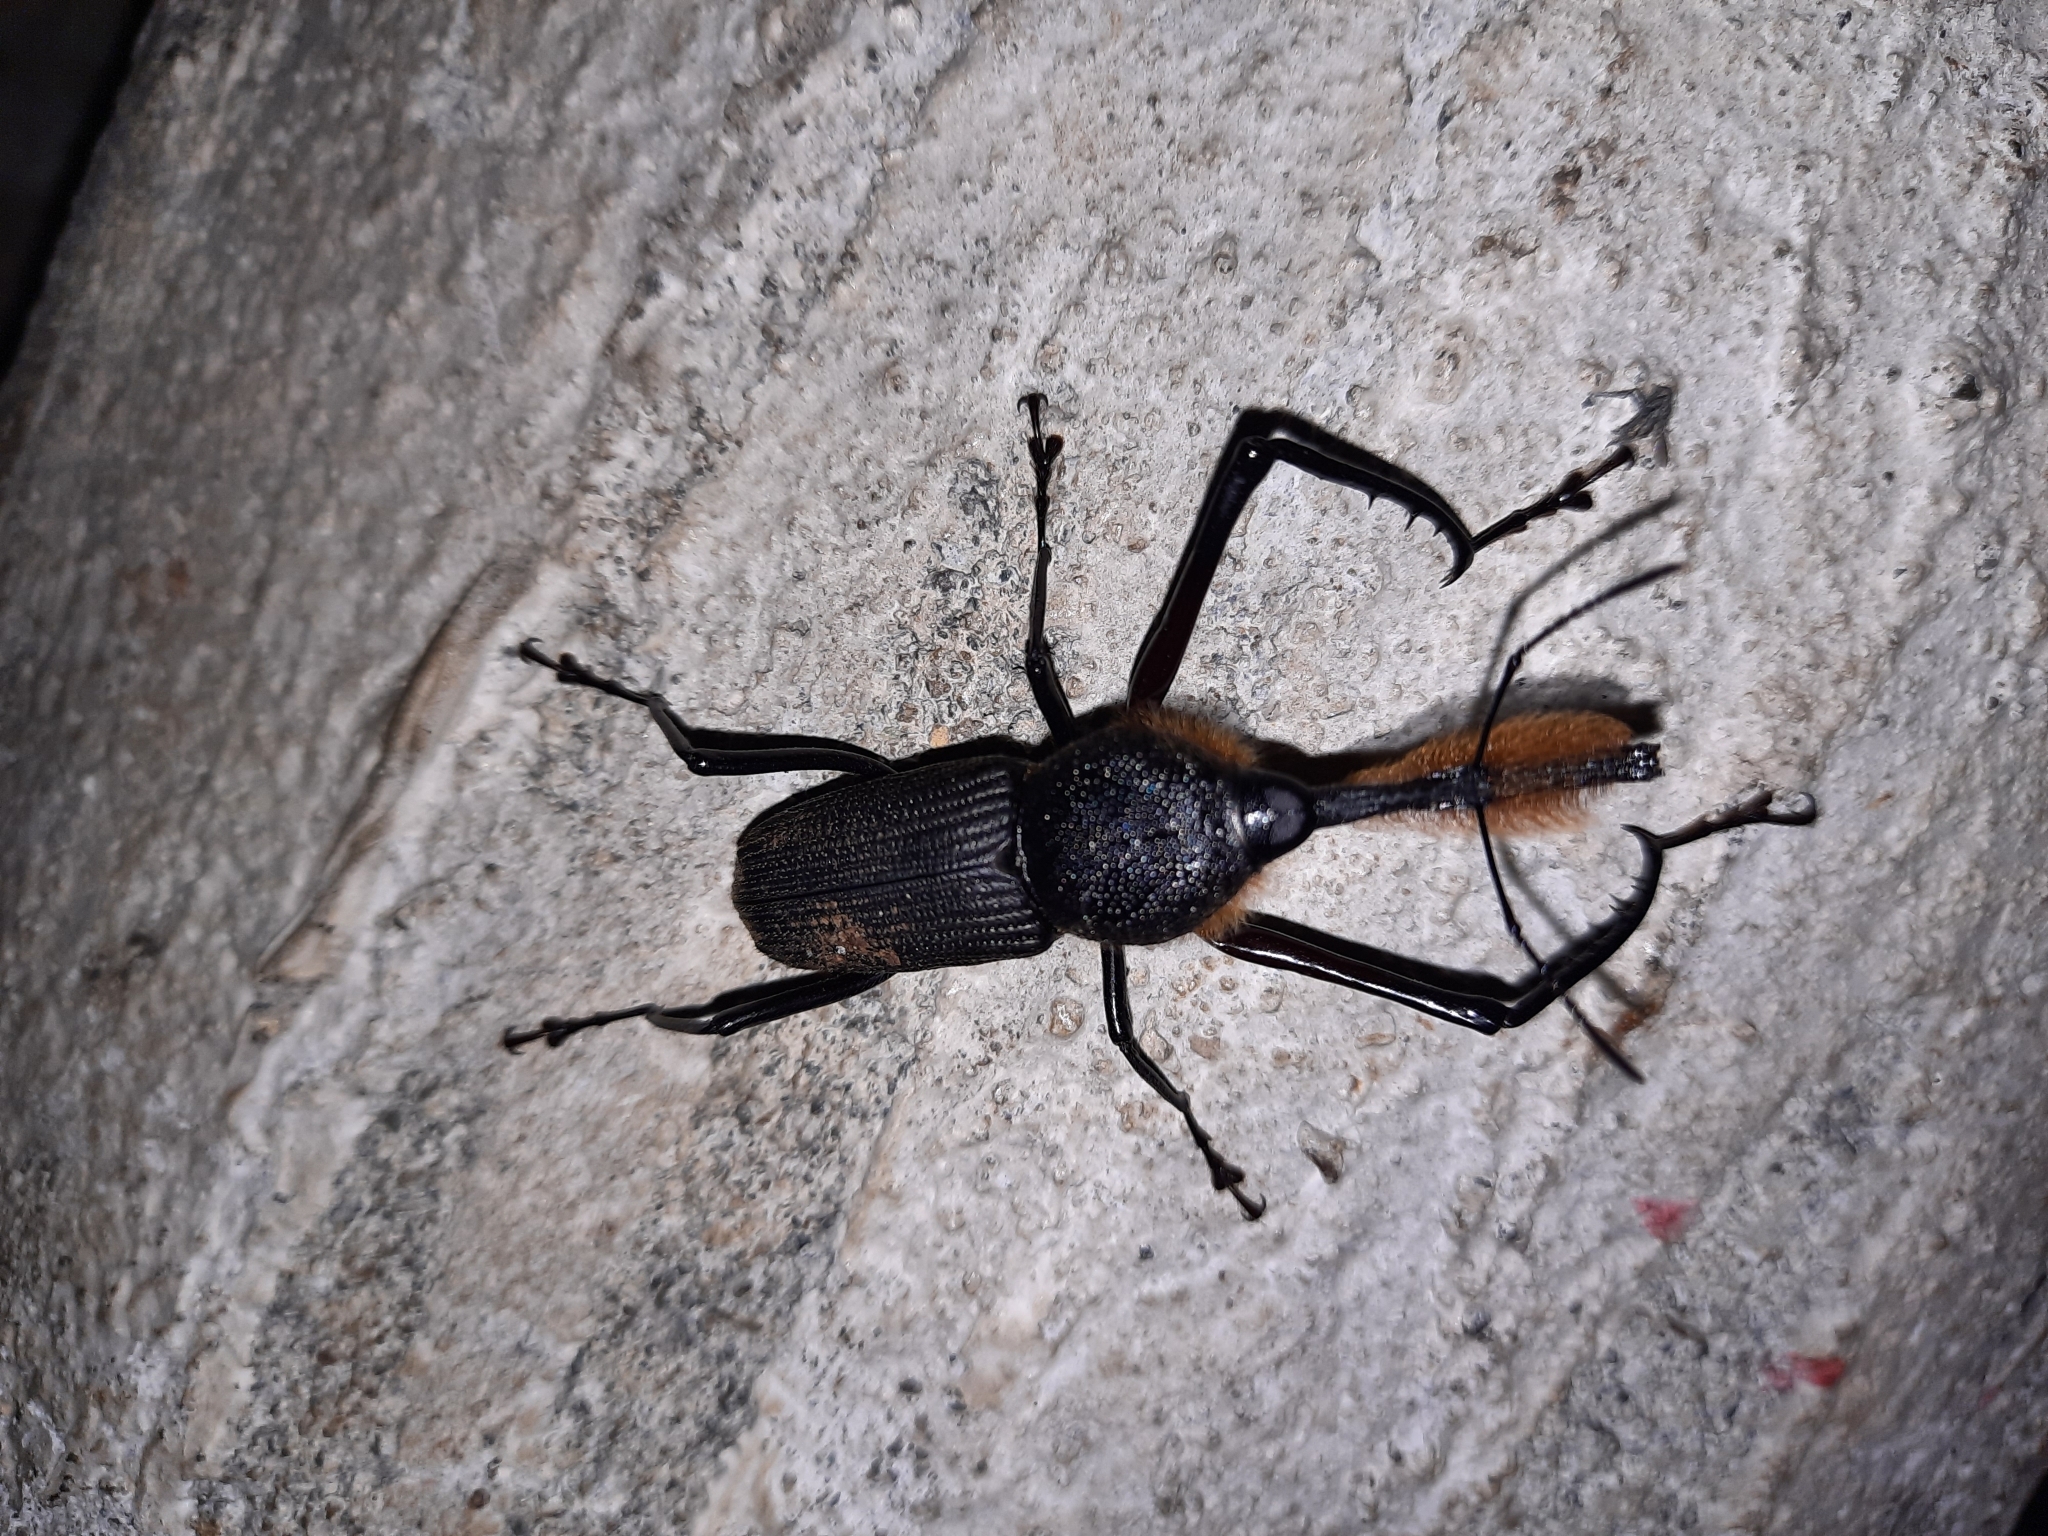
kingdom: Animalia
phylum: Arthropoda
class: Insecta
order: Coleoptera
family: Dryophthoridae
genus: Rhinostomus
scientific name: Rhinostomus barbirostris
